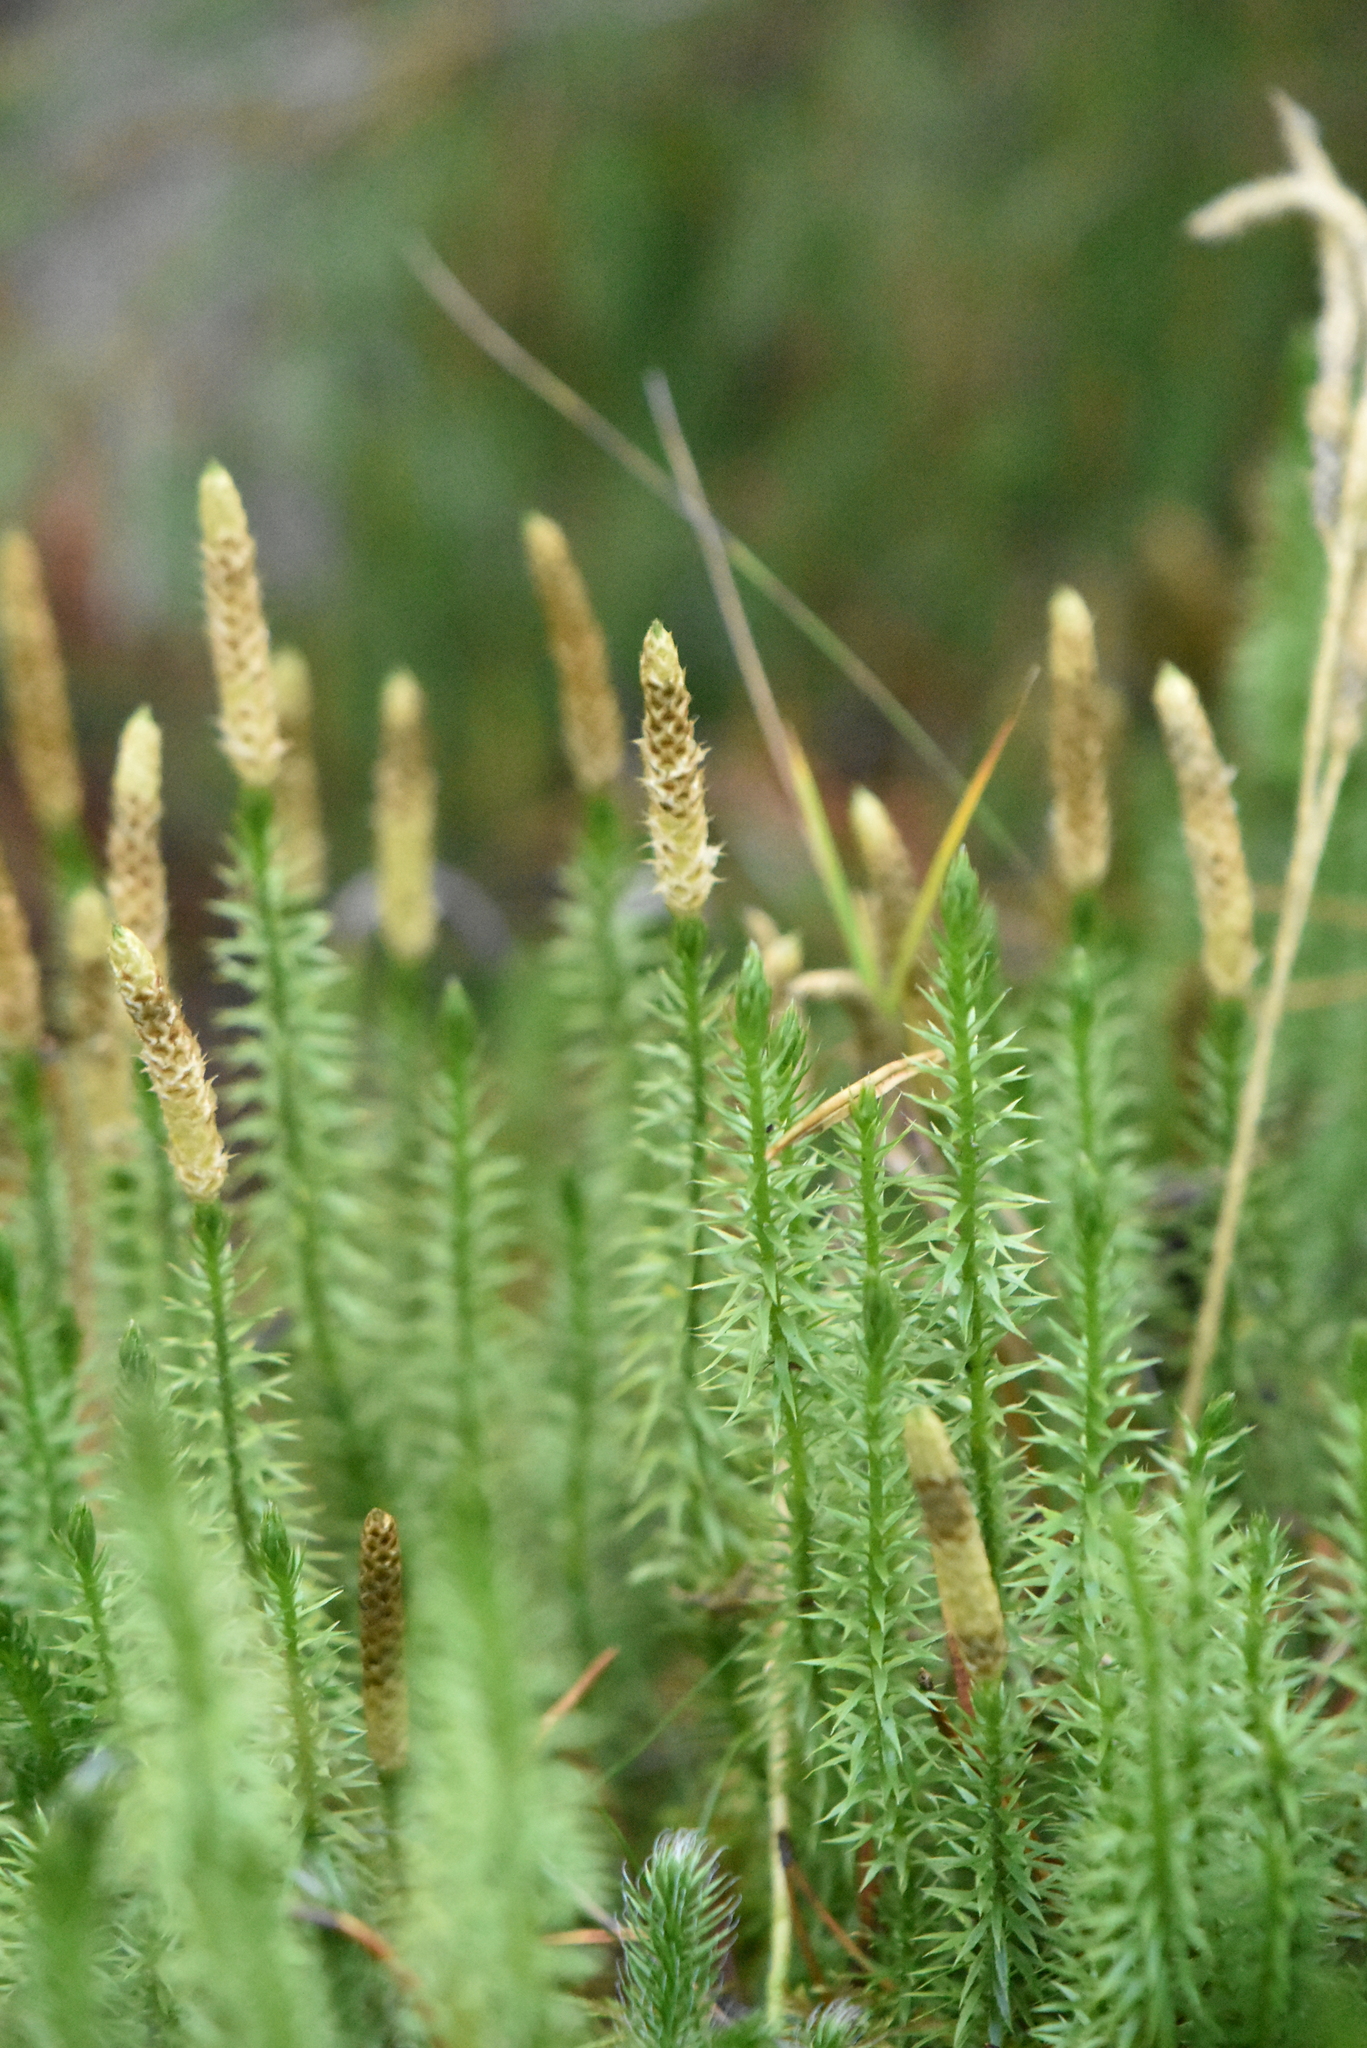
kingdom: Plantae
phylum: Tracheophyta
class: Lycopodiopsida
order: Lycopodiales
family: Lycopodiaceae
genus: Spinulum
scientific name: Spinulum annotinum
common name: Interrupted club-moss
